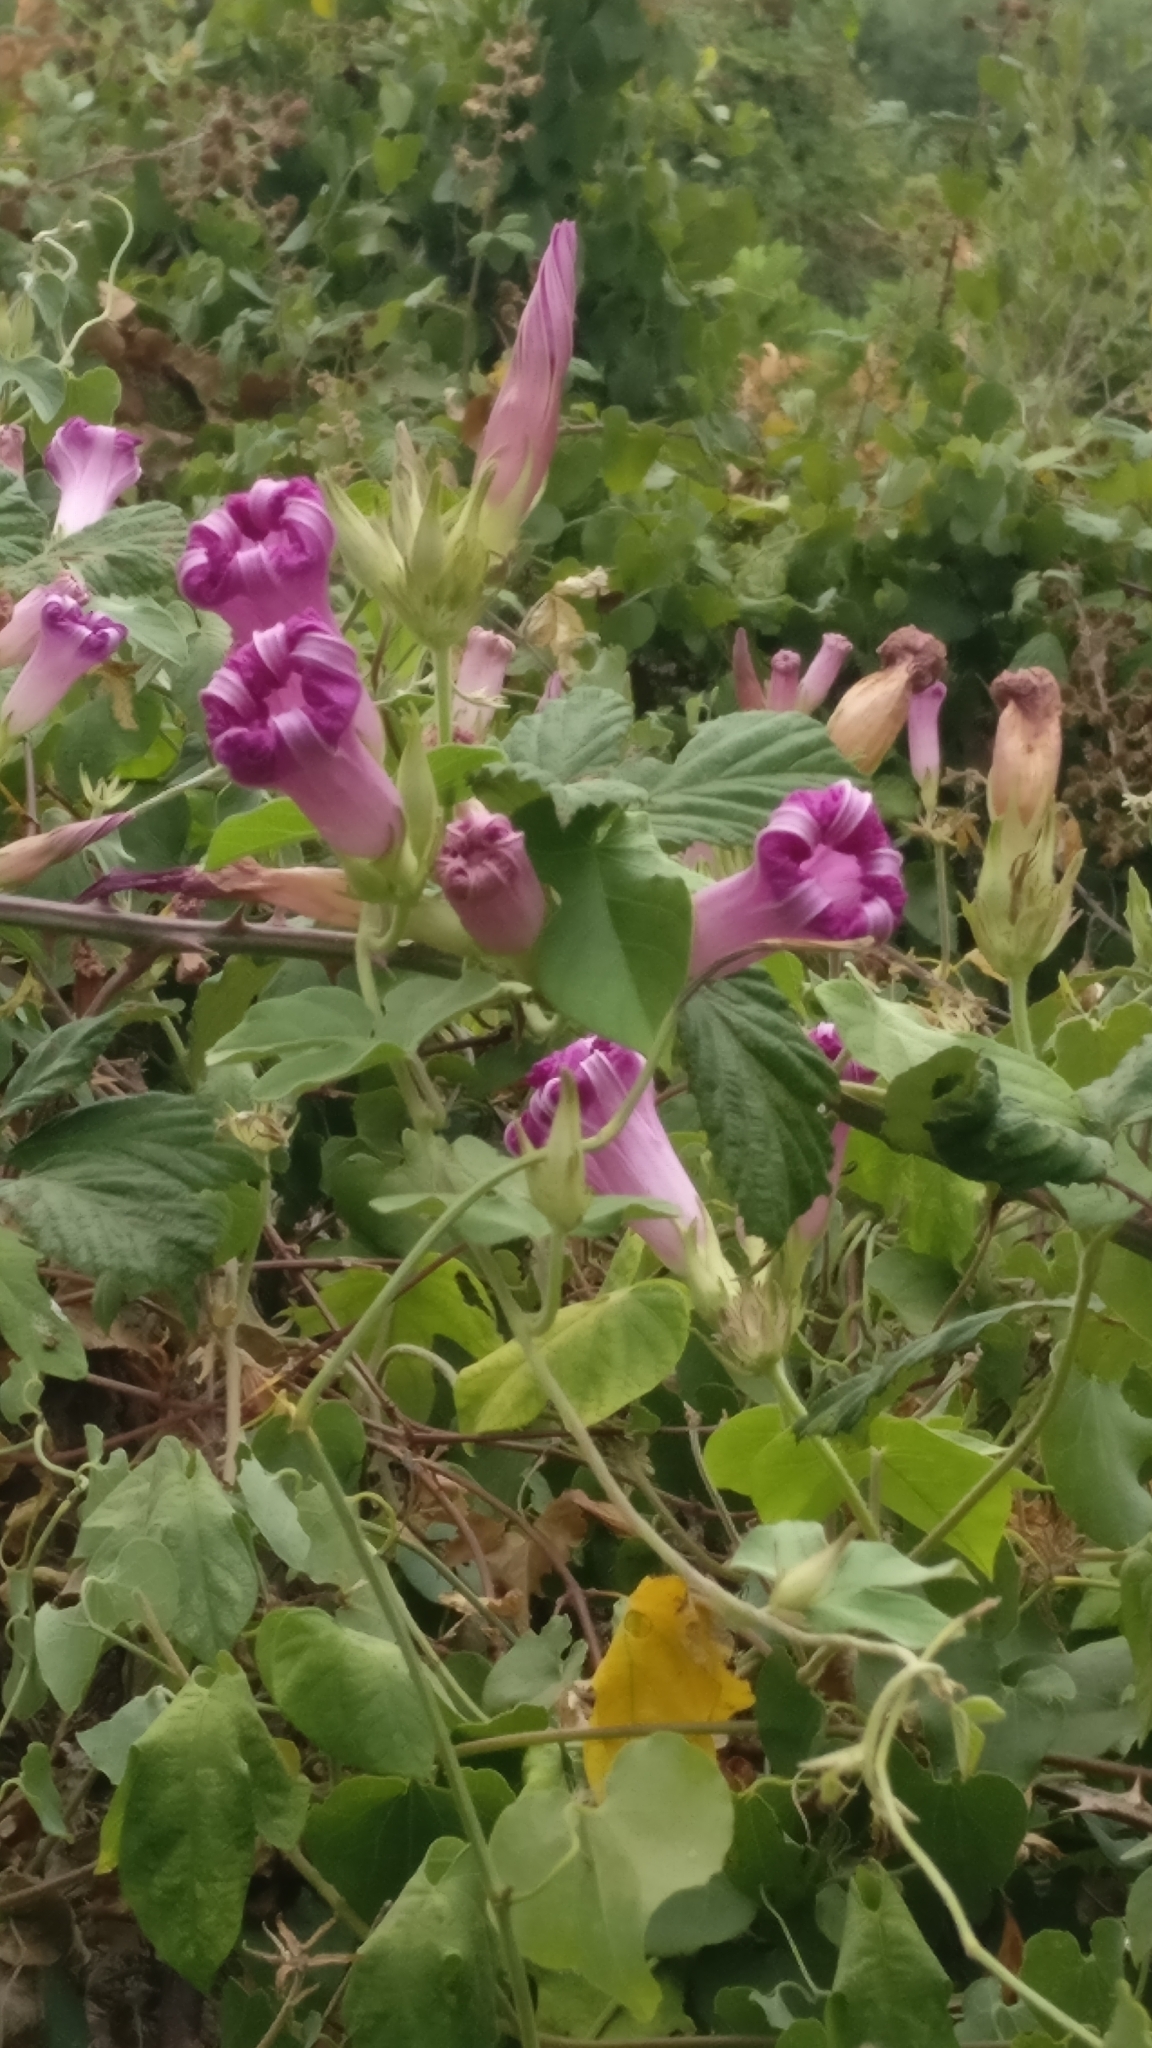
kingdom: Plantae
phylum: Tracheophyta
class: Magnoliopsida
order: Solanales
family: Convolvulaceae
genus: Ipomoea
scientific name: Ipomoea indica
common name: Blue dawnflower
